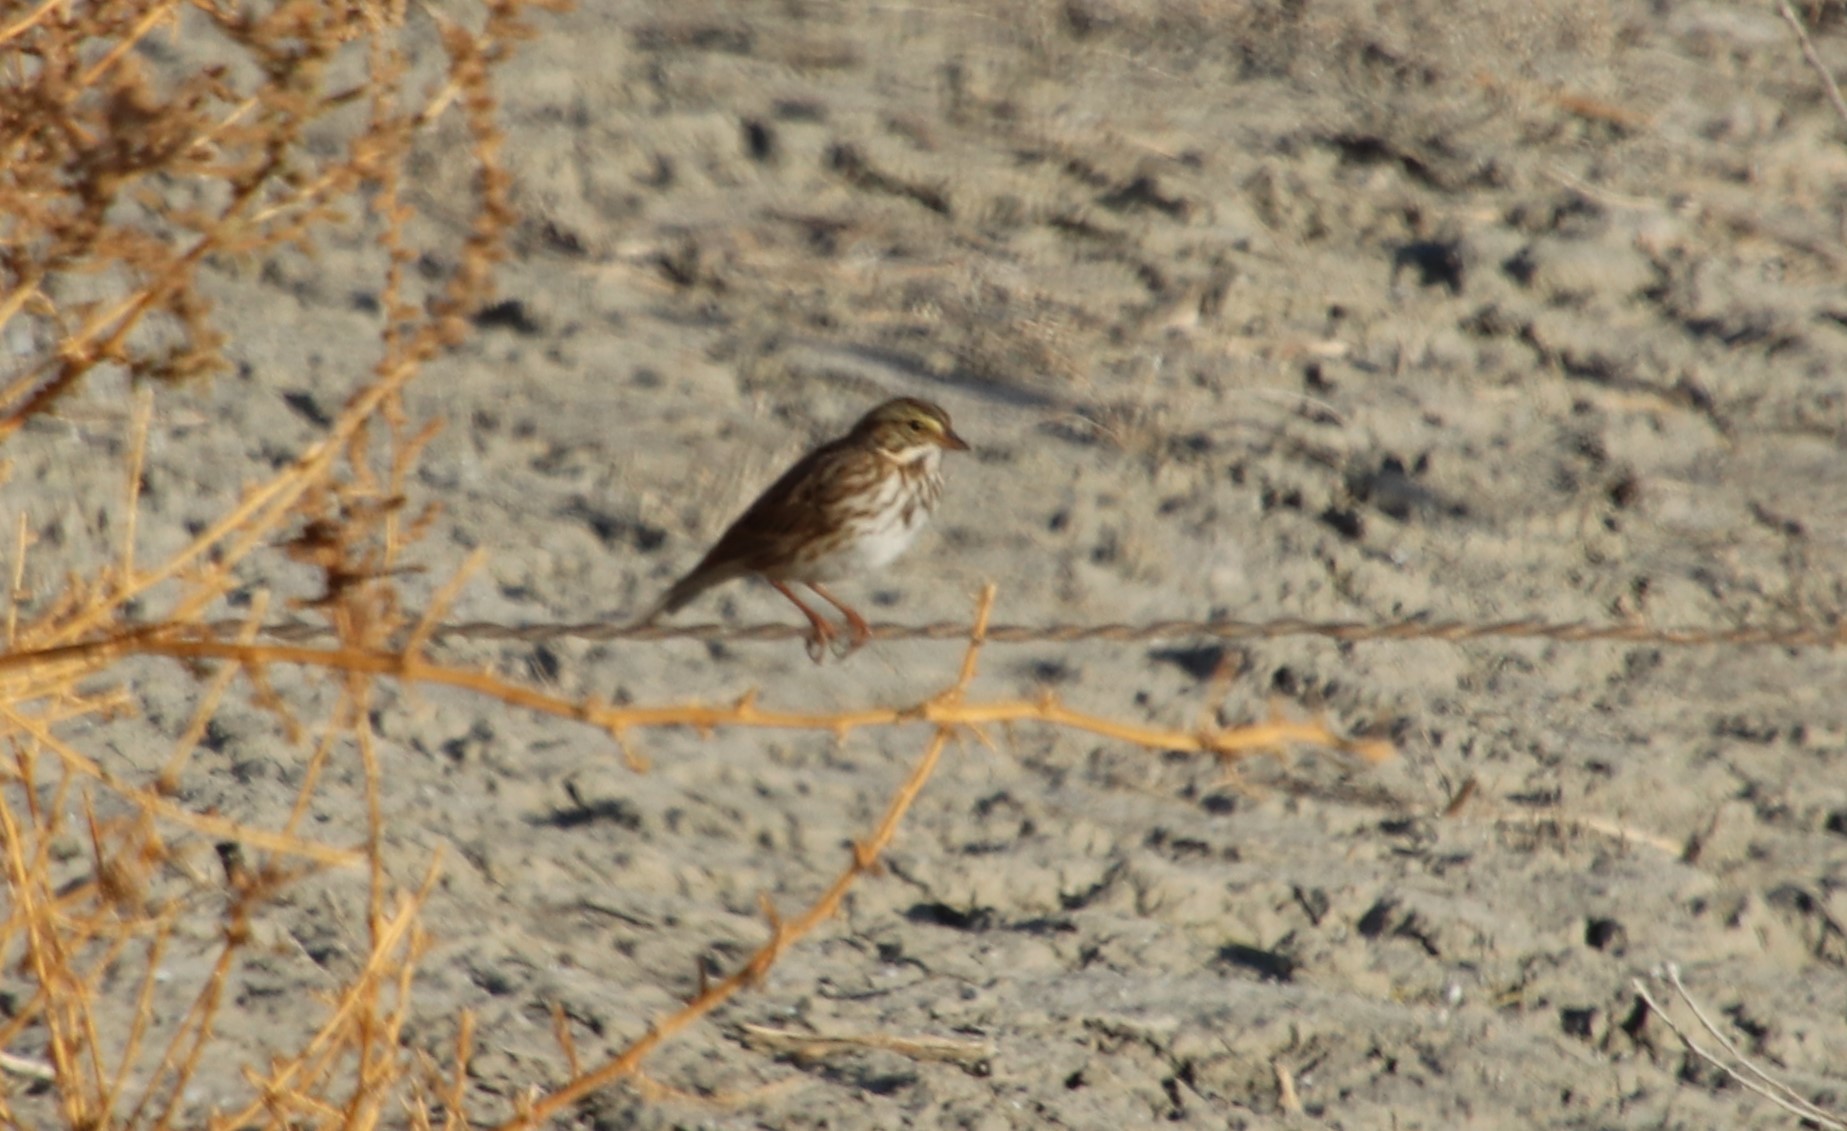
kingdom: Animalia
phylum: Chordata
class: Aves
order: Passeriformes
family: Passerellidae
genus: Passerculus
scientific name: Passerculus sandwichensis
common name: Savannah sparrow
